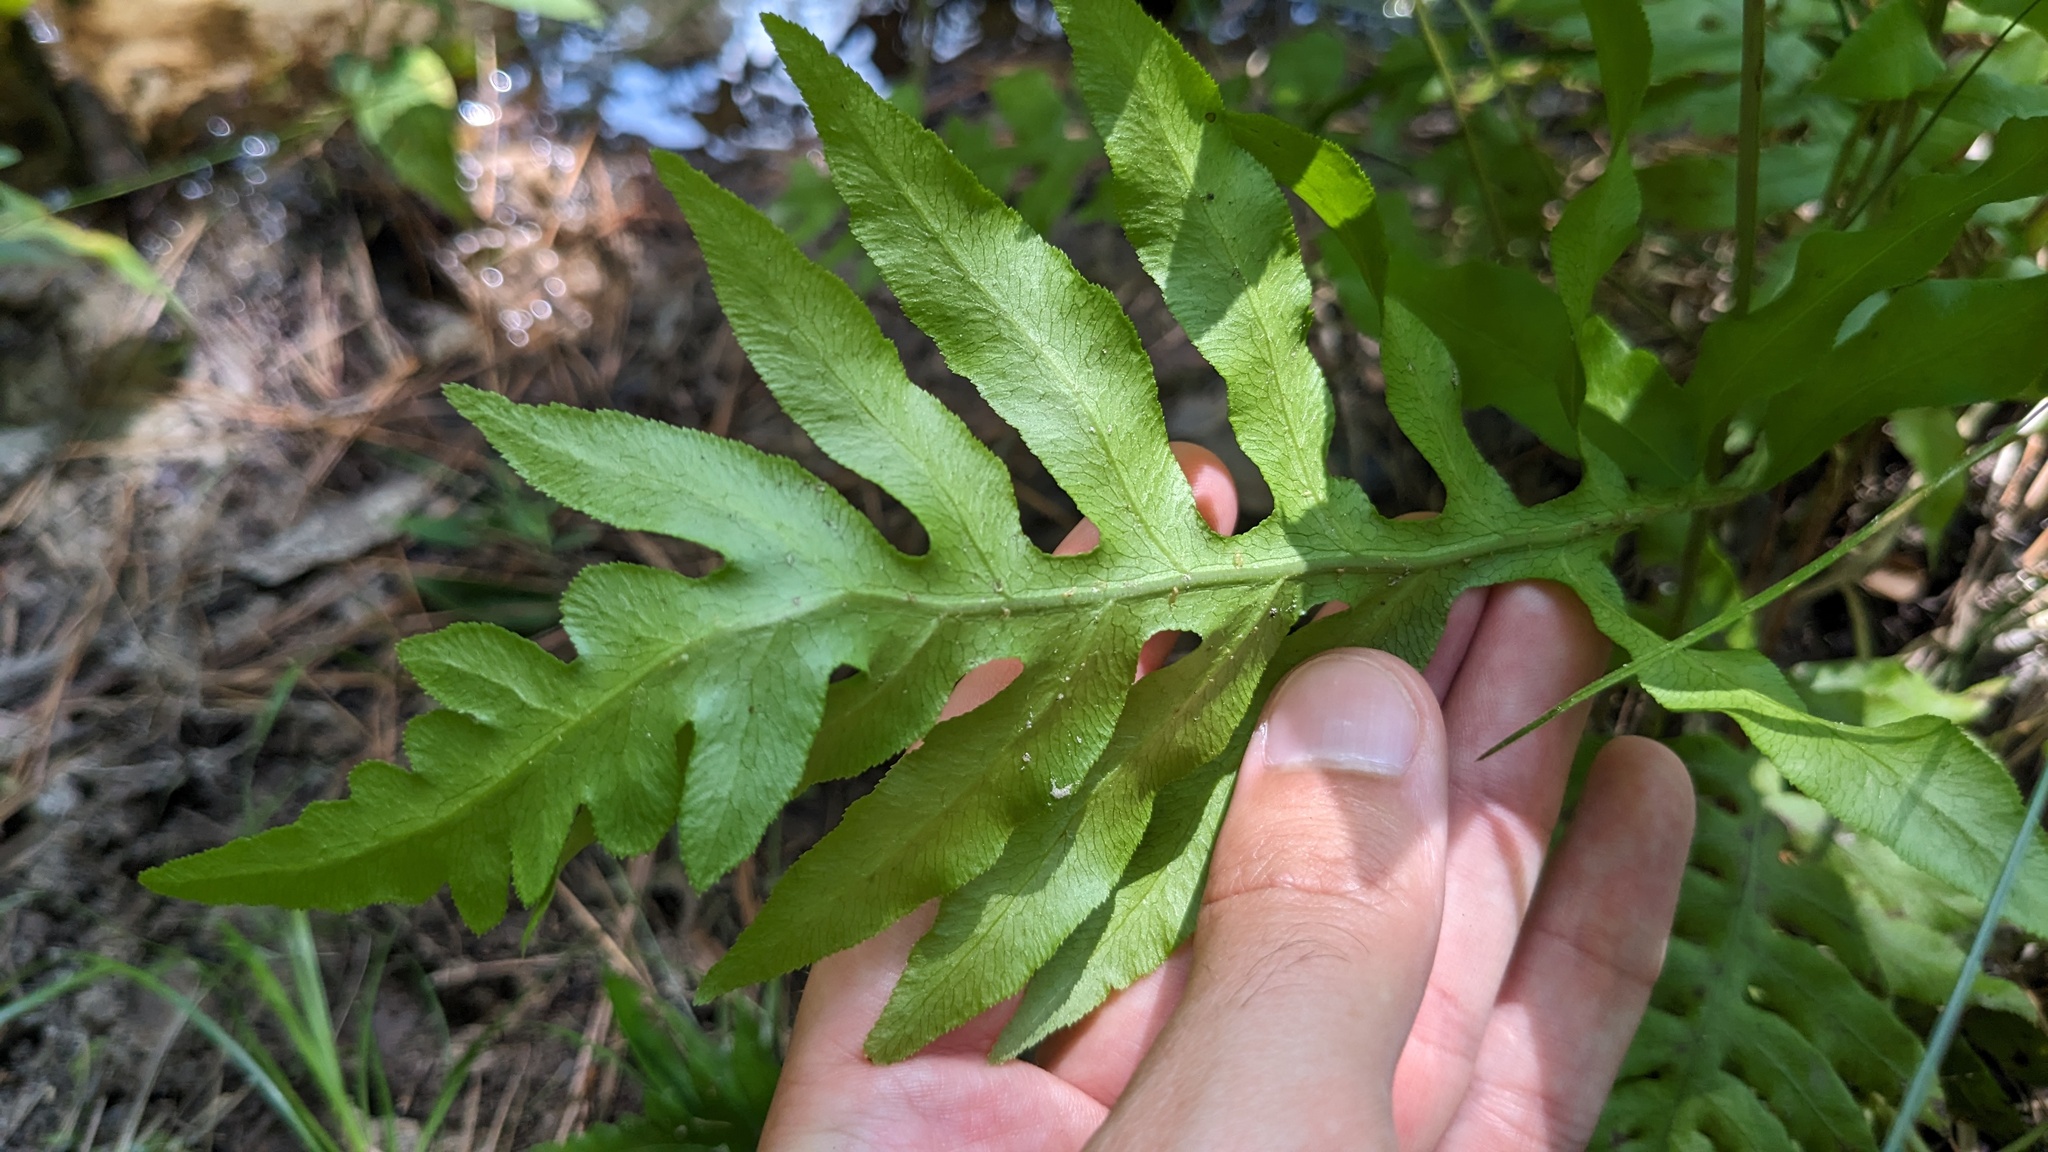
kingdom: Plantae
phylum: Tracheophyta
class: Polypodiopsida
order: Polypodiales
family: Blechnaceae
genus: Lorinseria
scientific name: Lorinseria areolata
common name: Dwarf chain fern
